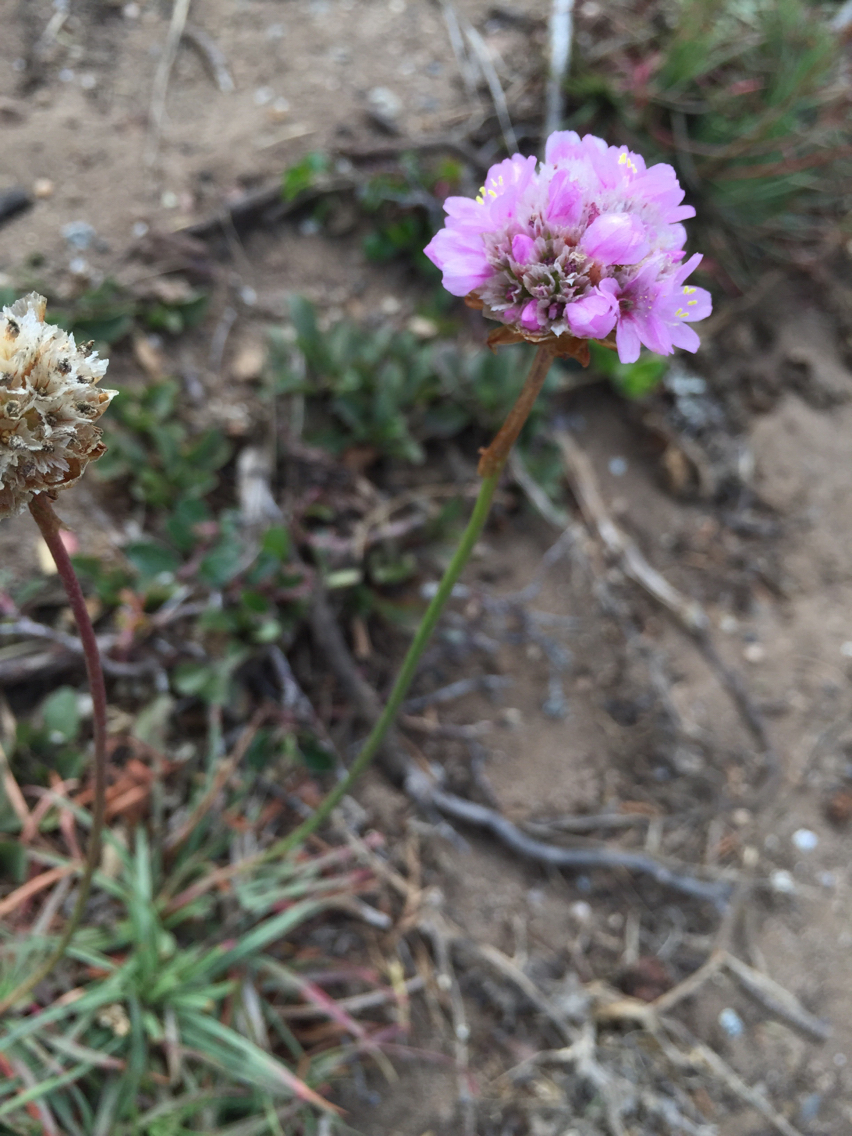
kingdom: Plantae
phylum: Tracheophyta
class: Magnoliopsida
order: Caryophyllales
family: Plumbaginaceae
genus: Armeria
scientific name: Armeria maritima
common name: Thrift
